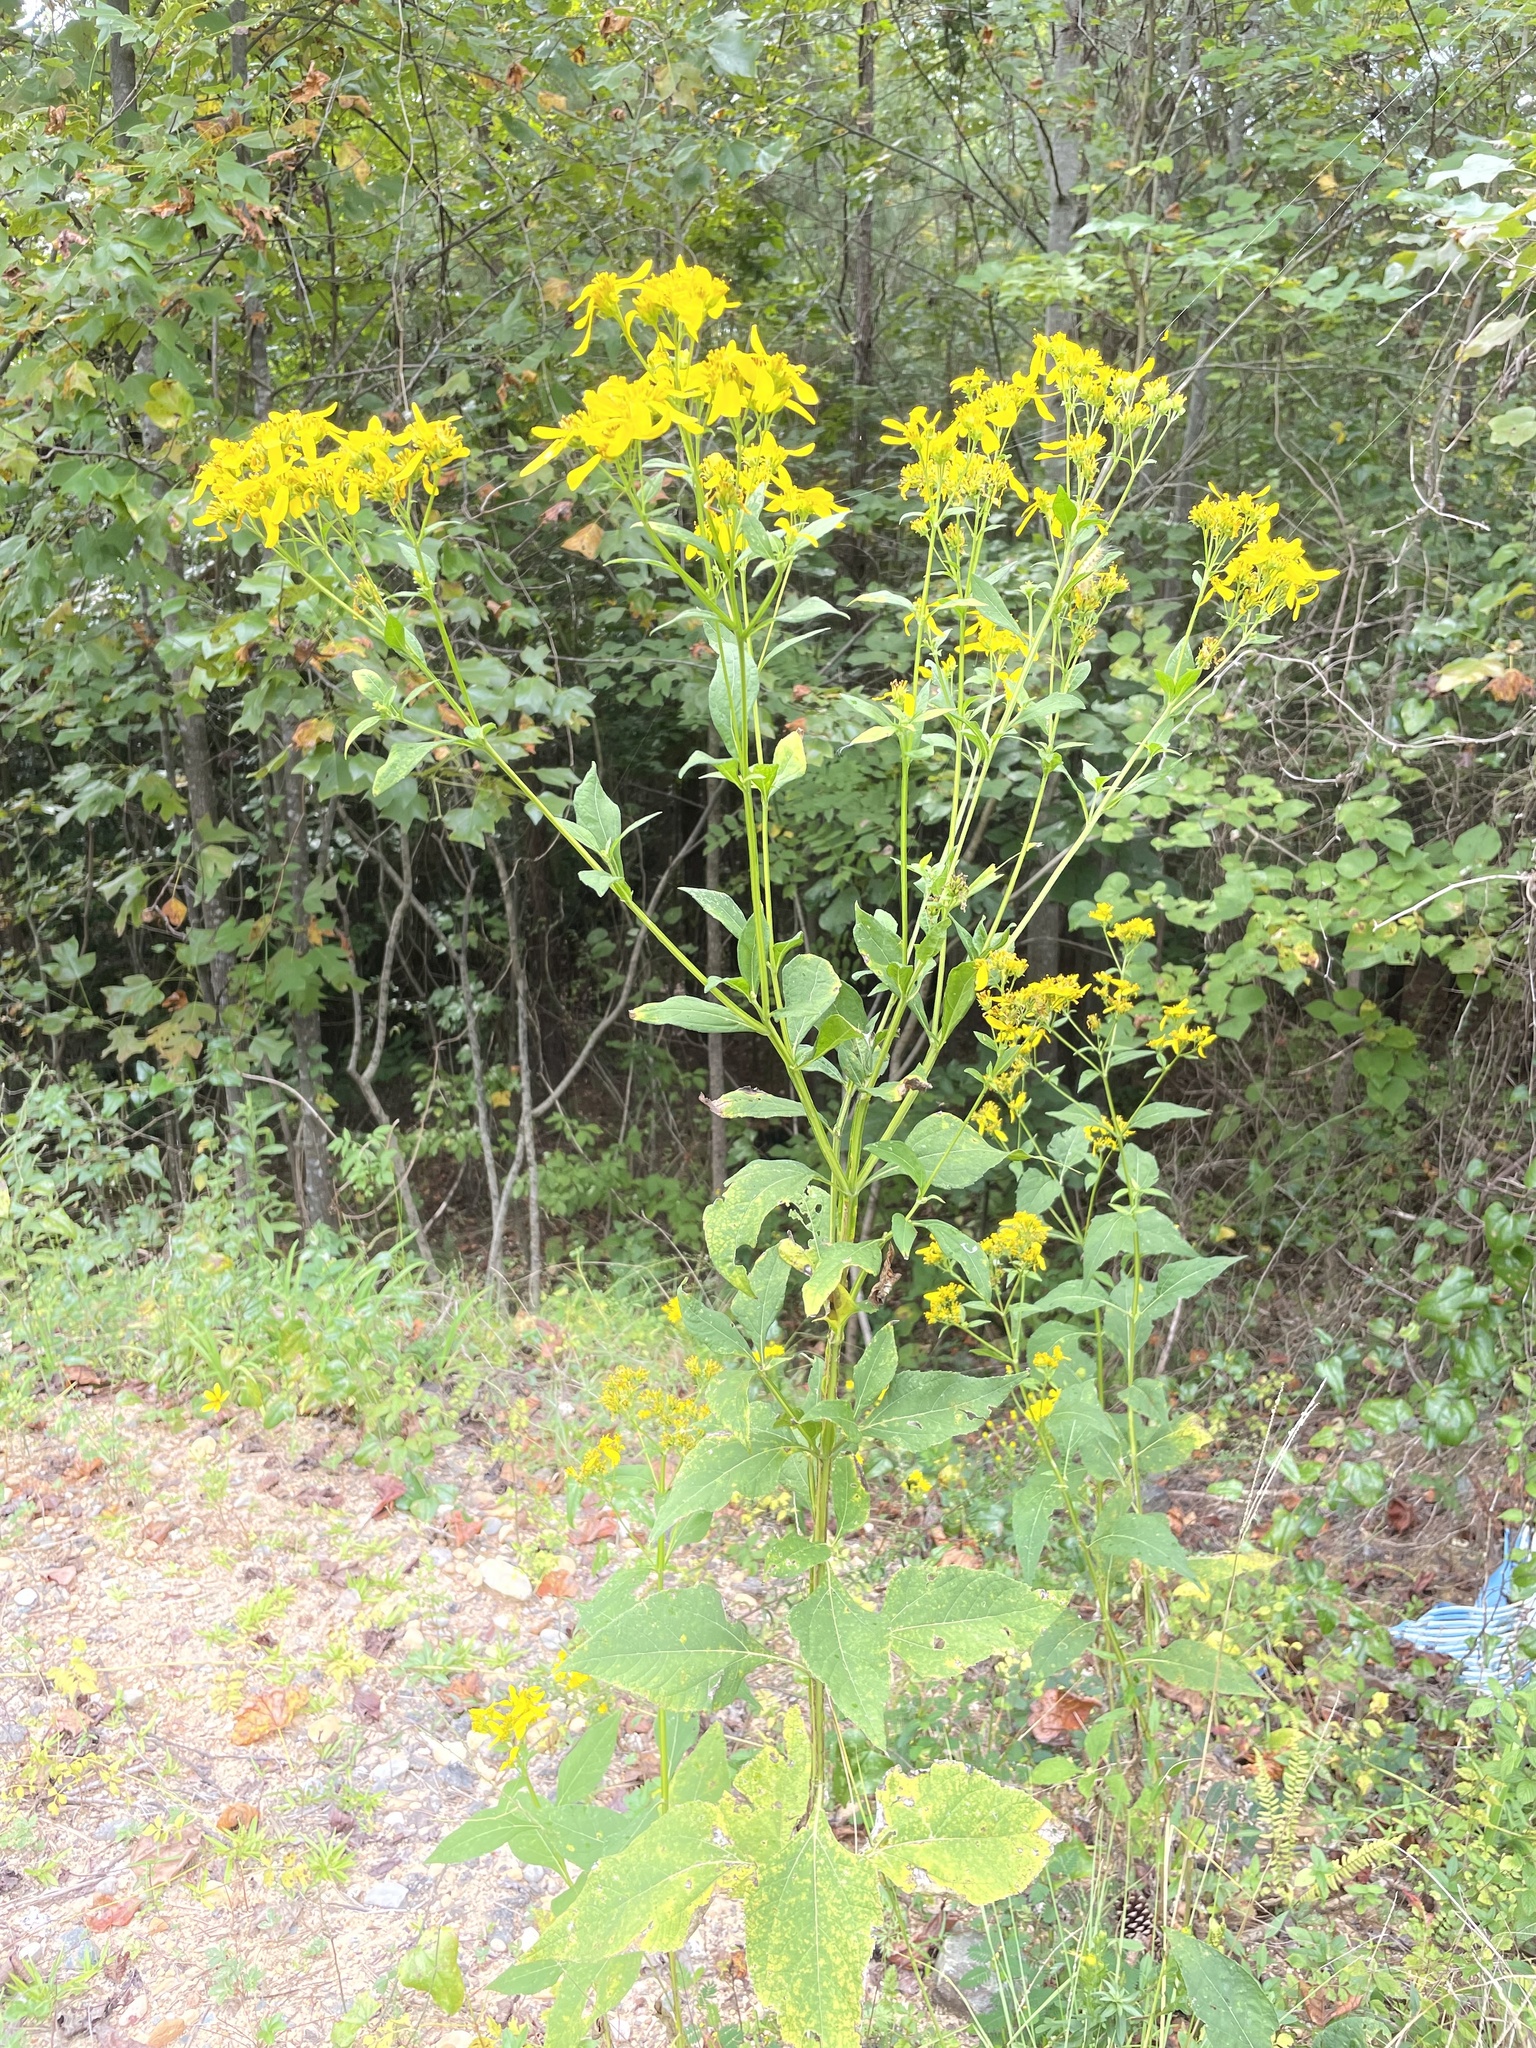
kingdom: Plantae
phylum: Tracheophyta
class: Magnoliopsida
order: Asterales
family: Asteraceae
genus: Verbesina
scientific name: Verbesina occidentalis
